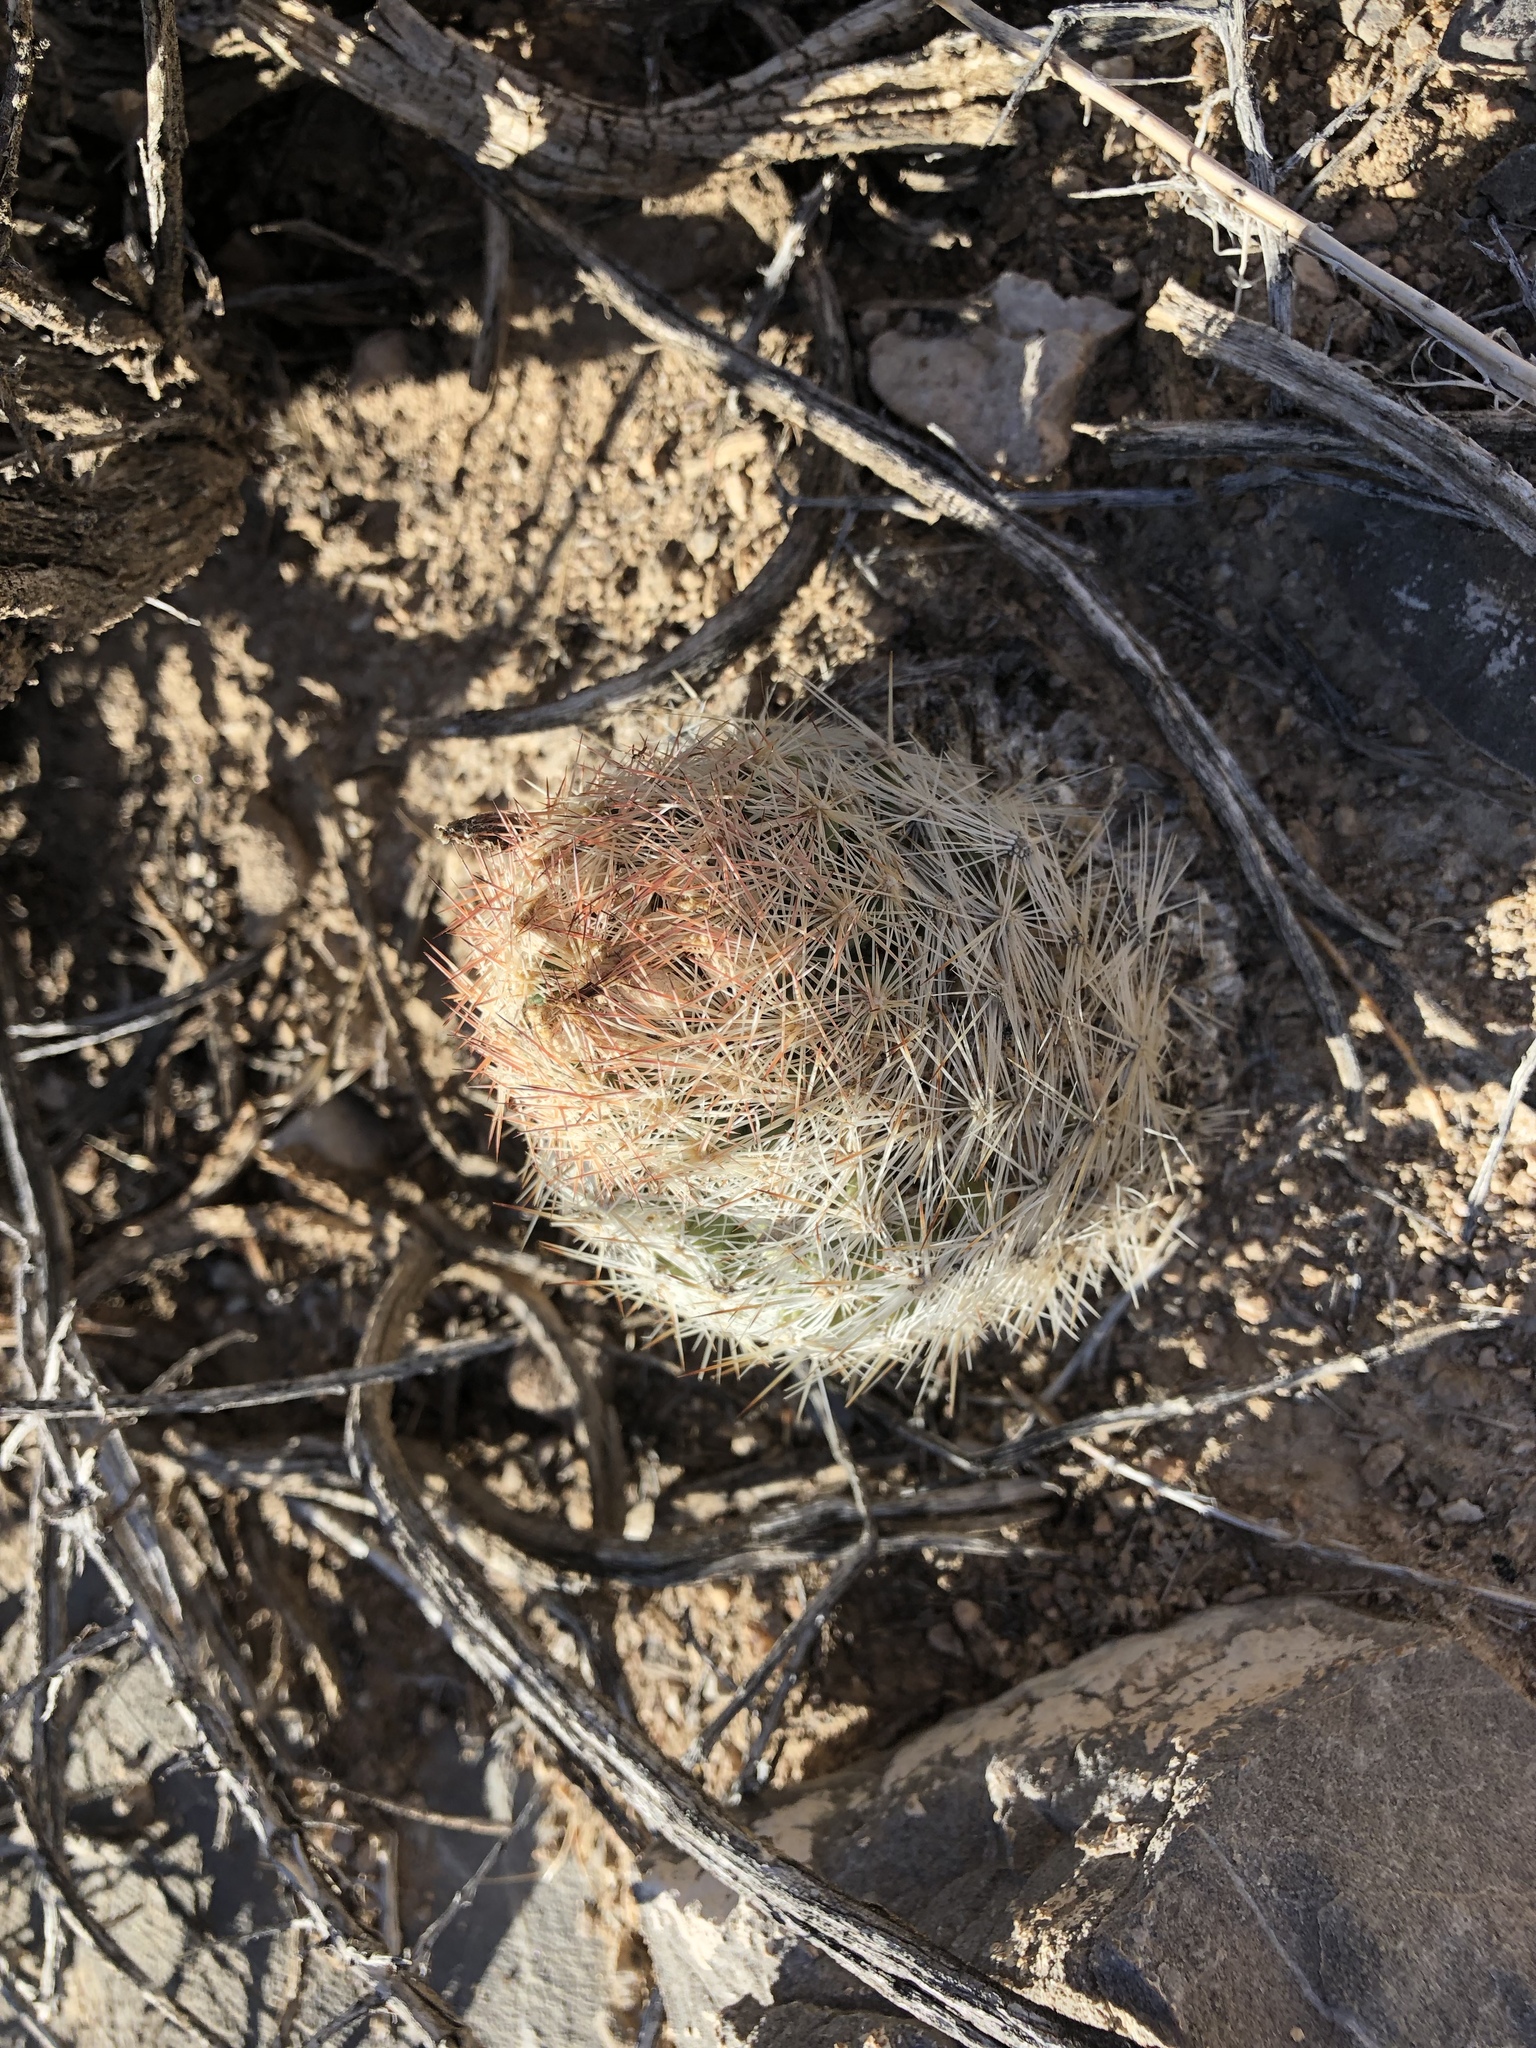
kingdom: Plantae
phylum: Tracheophyta
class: Magnoliopsida
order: Caryophyllales
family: Cactaceae
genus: Pelecyphora
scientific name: Pelecyphora dasyacantha
